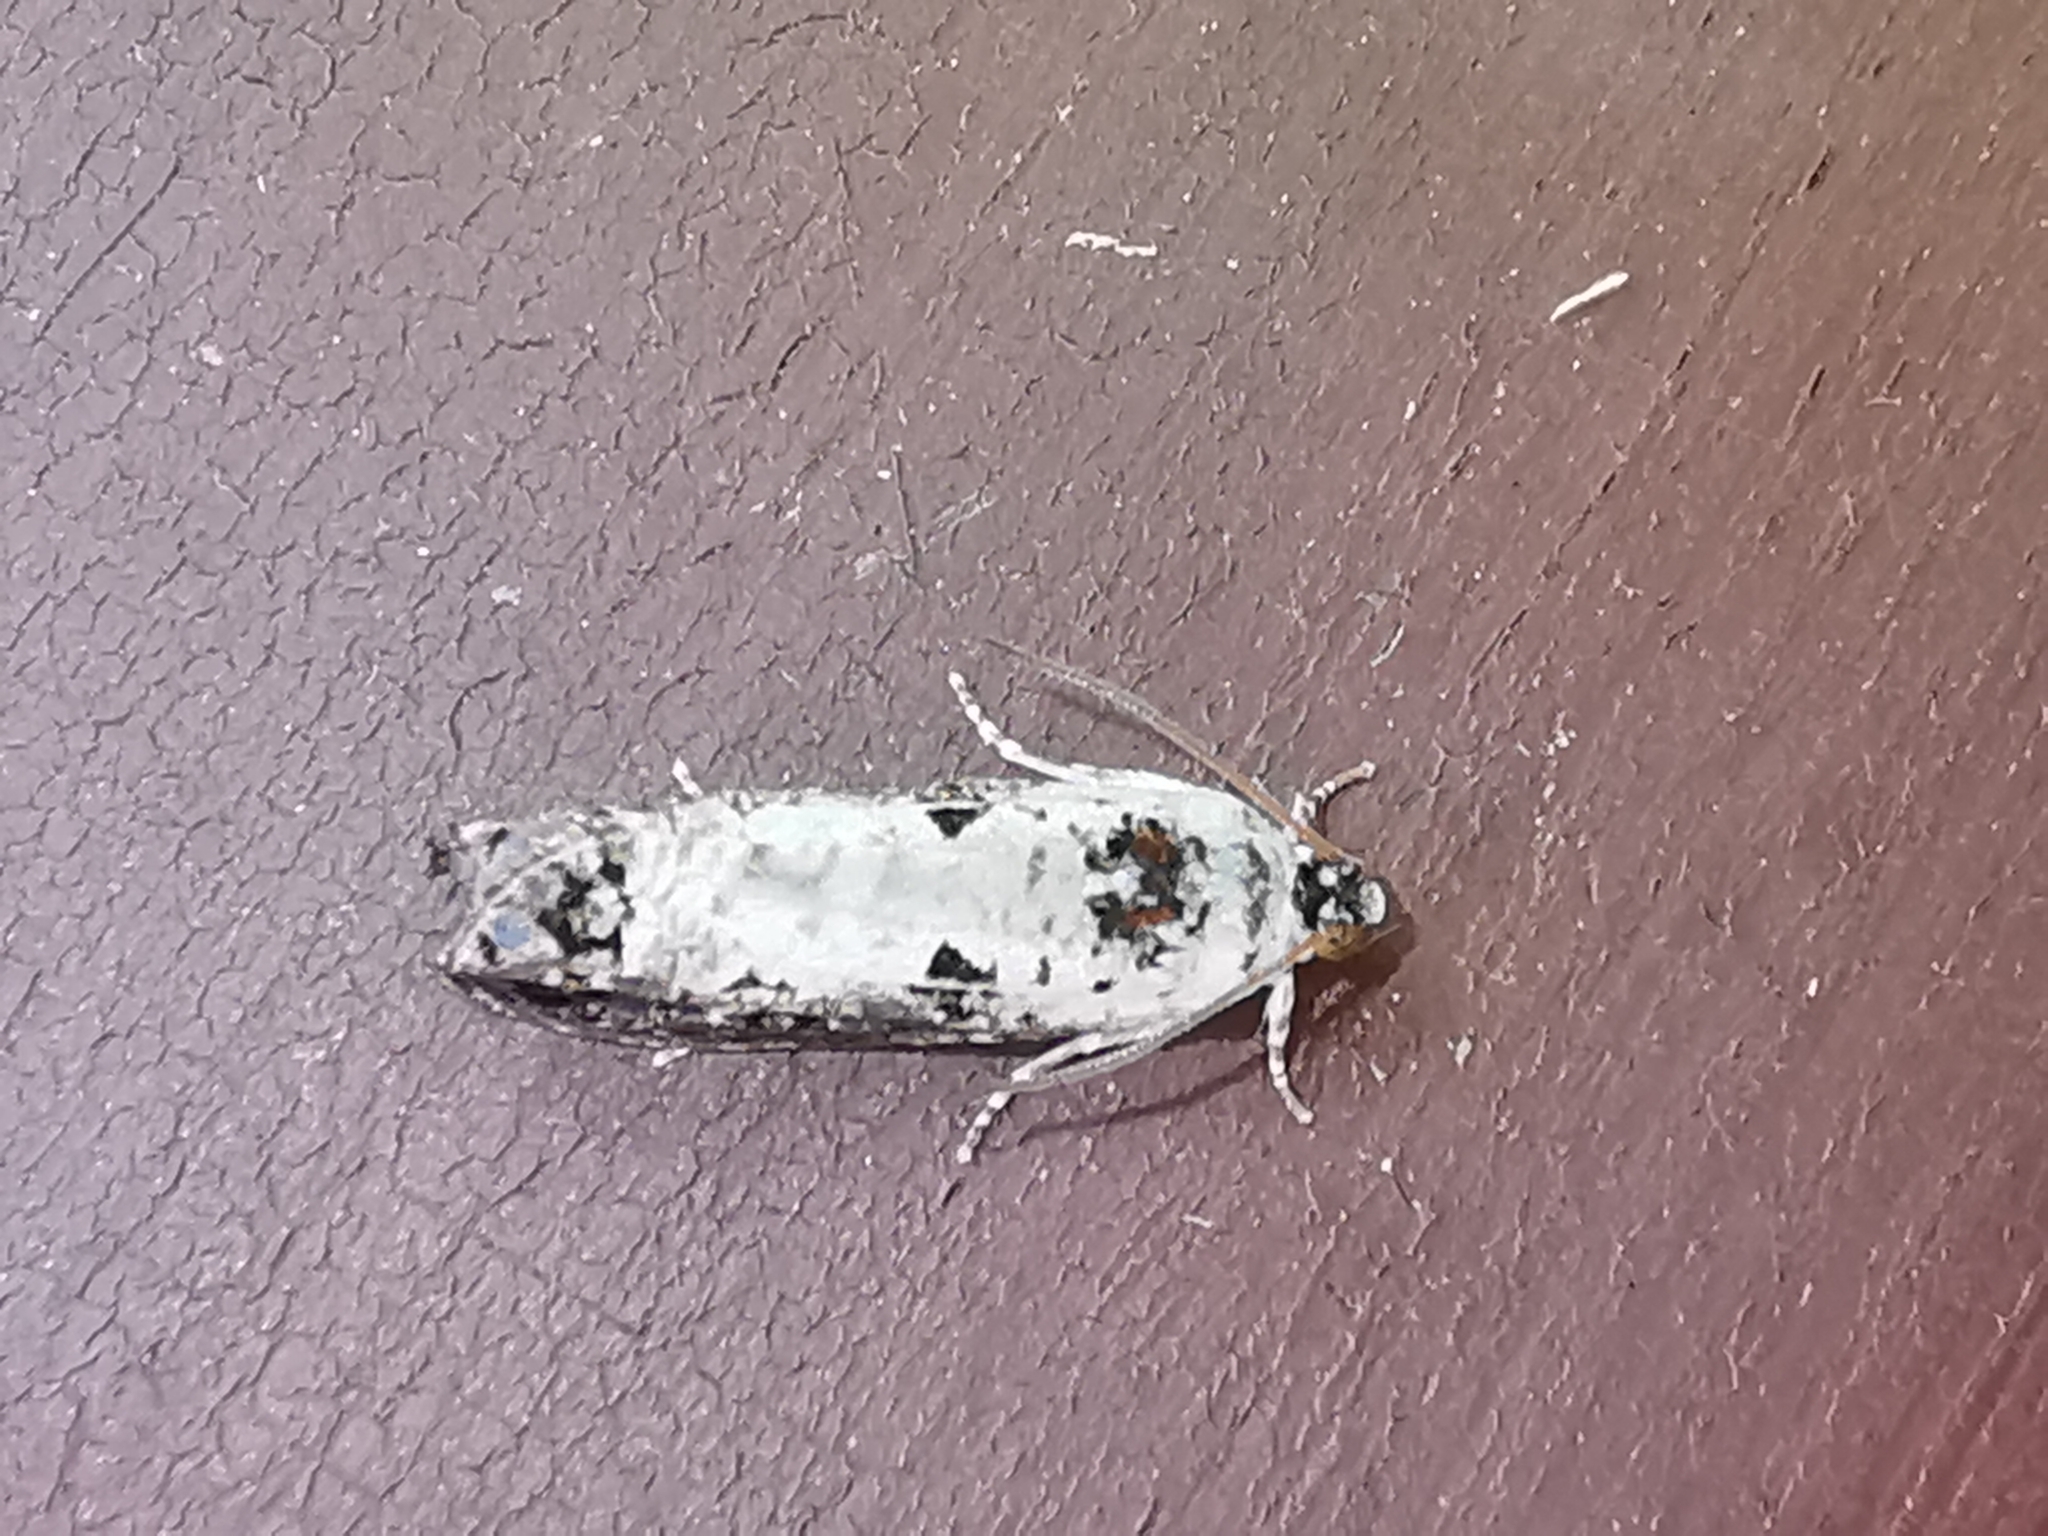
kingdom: Animalia
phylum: Arthropoda
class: Insecta
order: Lepidoptera
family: Tortricidae
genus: Hedya
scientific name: Hedya salicella
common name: Large tortricid moth
